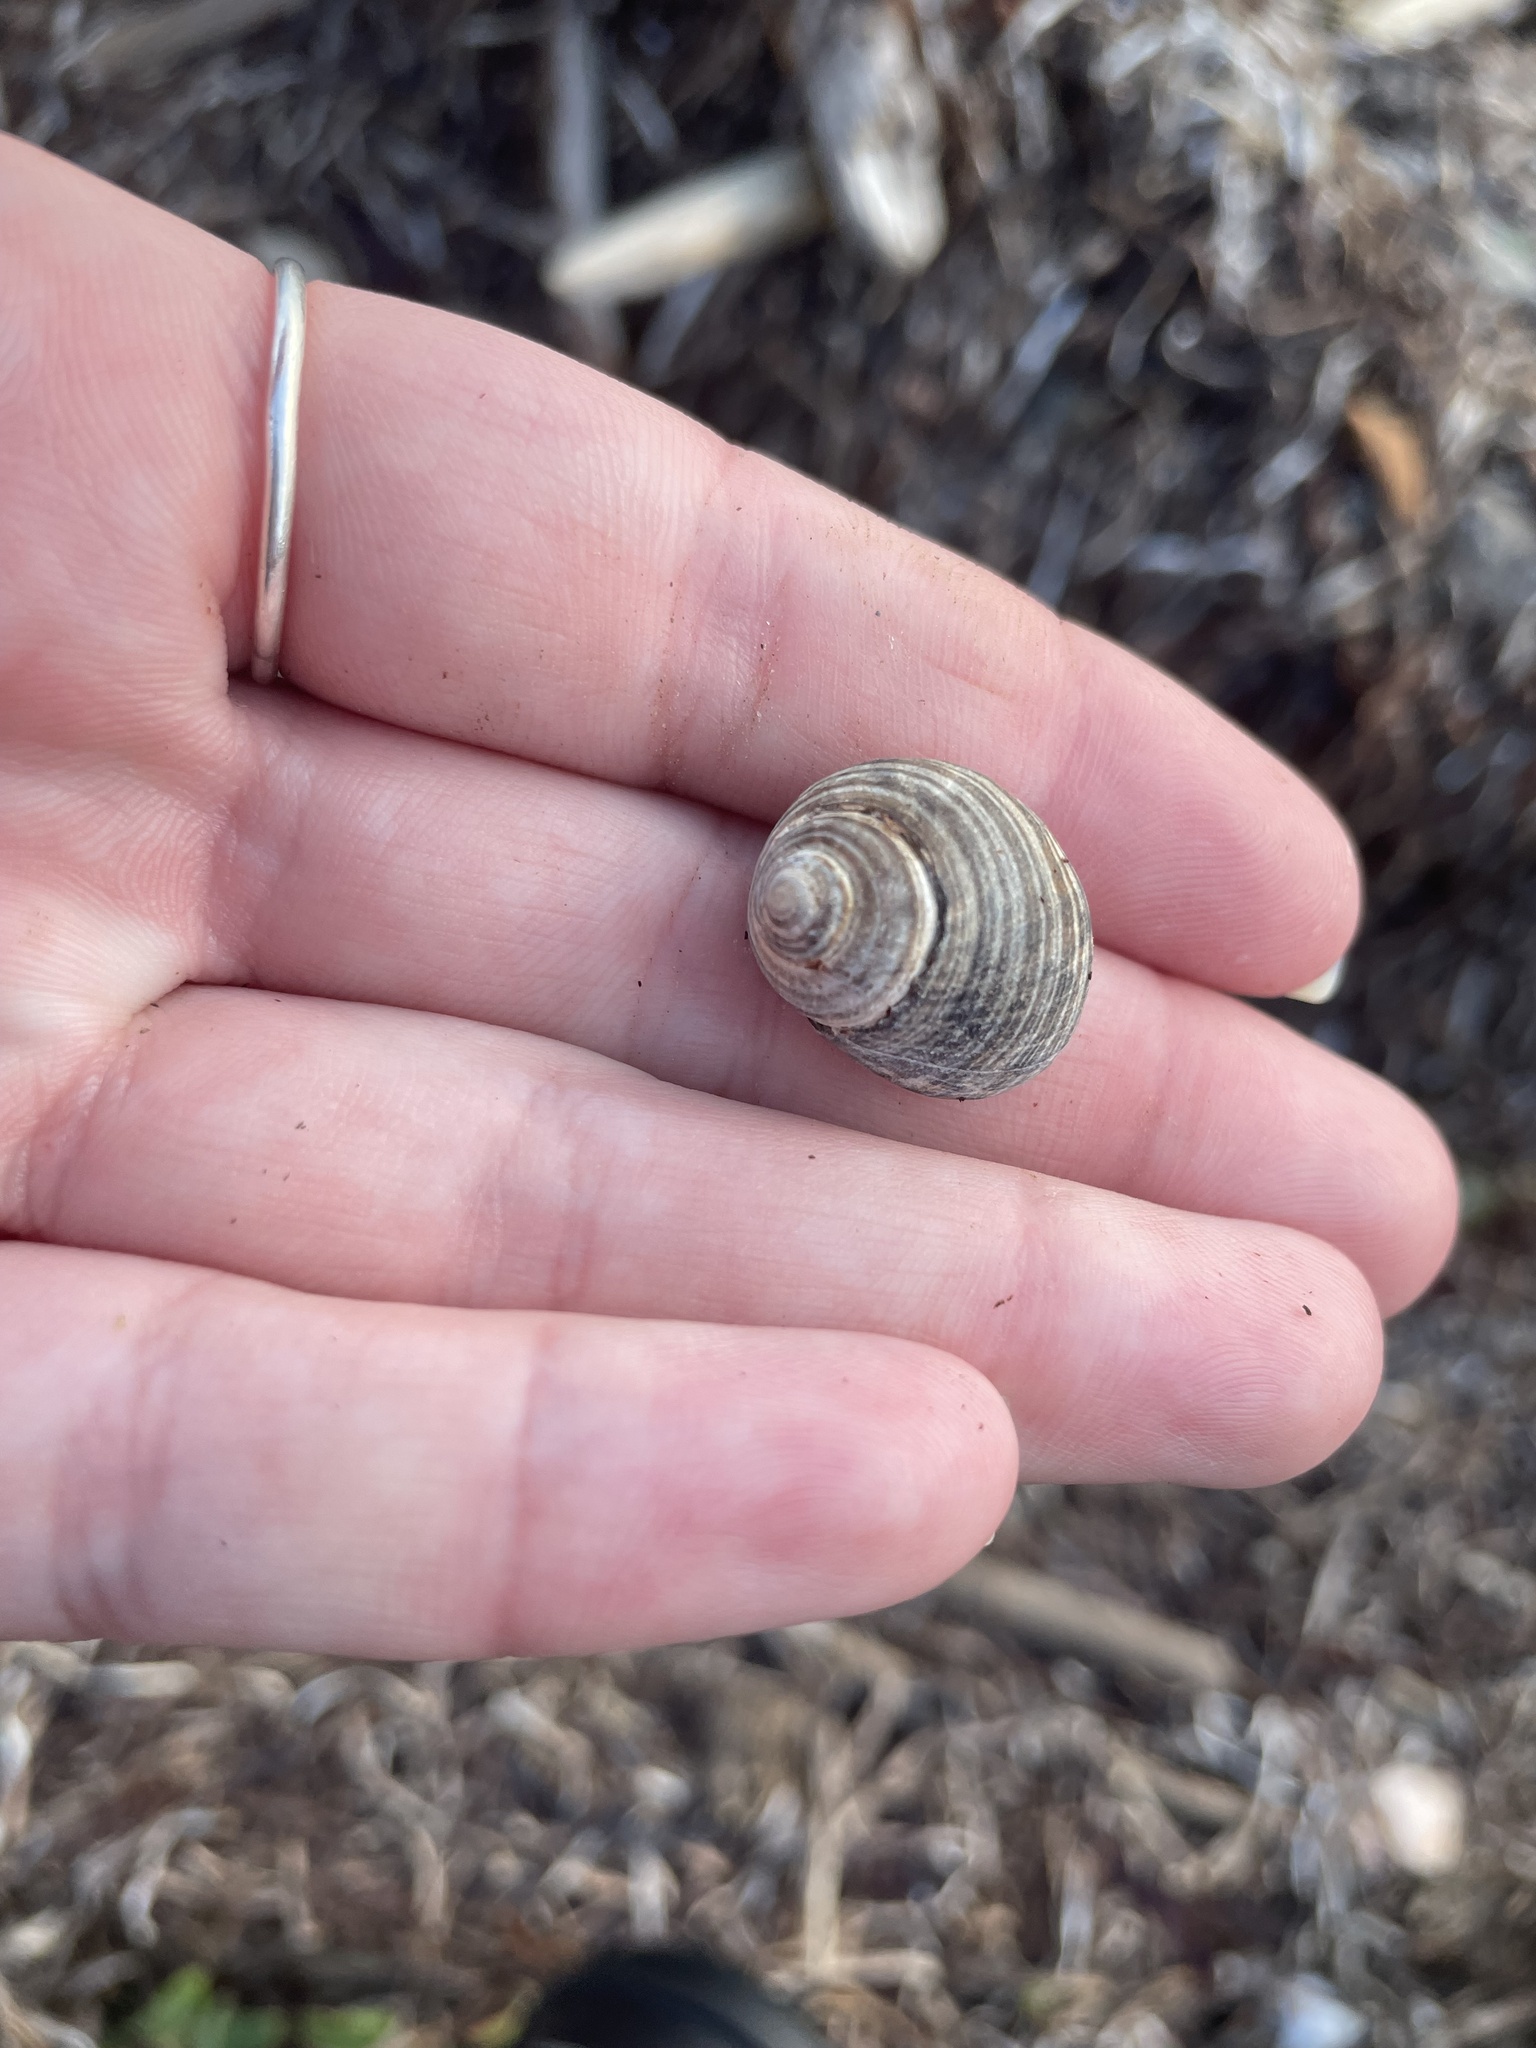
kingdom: Animalia
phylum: Mollusca
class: Gastropoda
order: Littorinimorpha
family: Littorinidae
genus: Littorina
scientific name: Littorina littorea
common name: Common periwinkle
